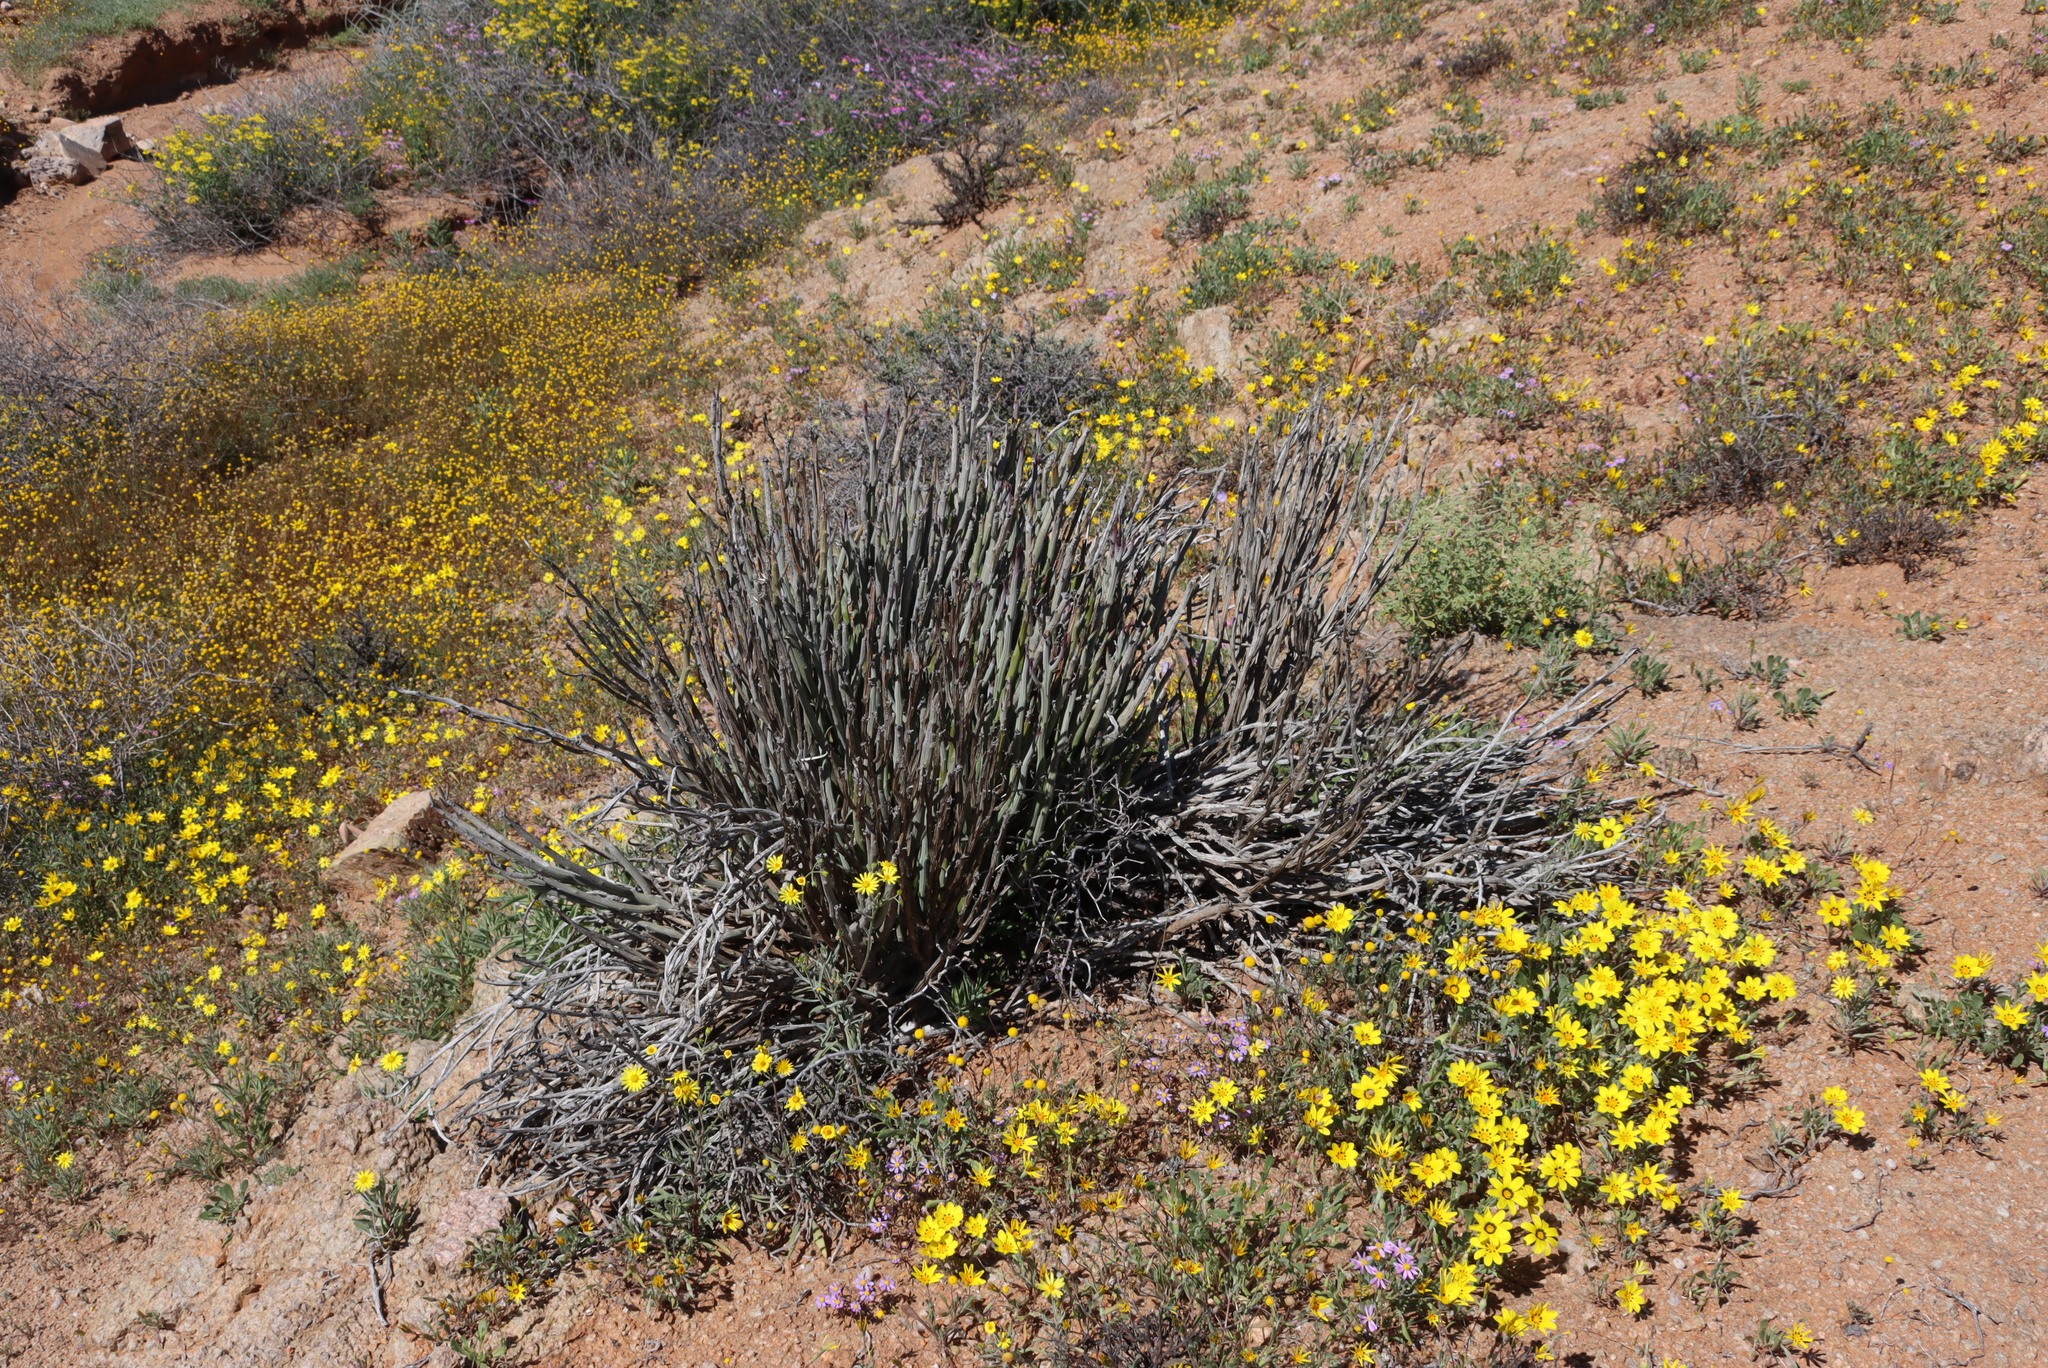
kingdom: Plantae
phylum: Tracheophyta
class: Magnoliopsida
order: Asterales
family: Asteraceae
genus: Curio
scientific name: Curio avasimontanus
